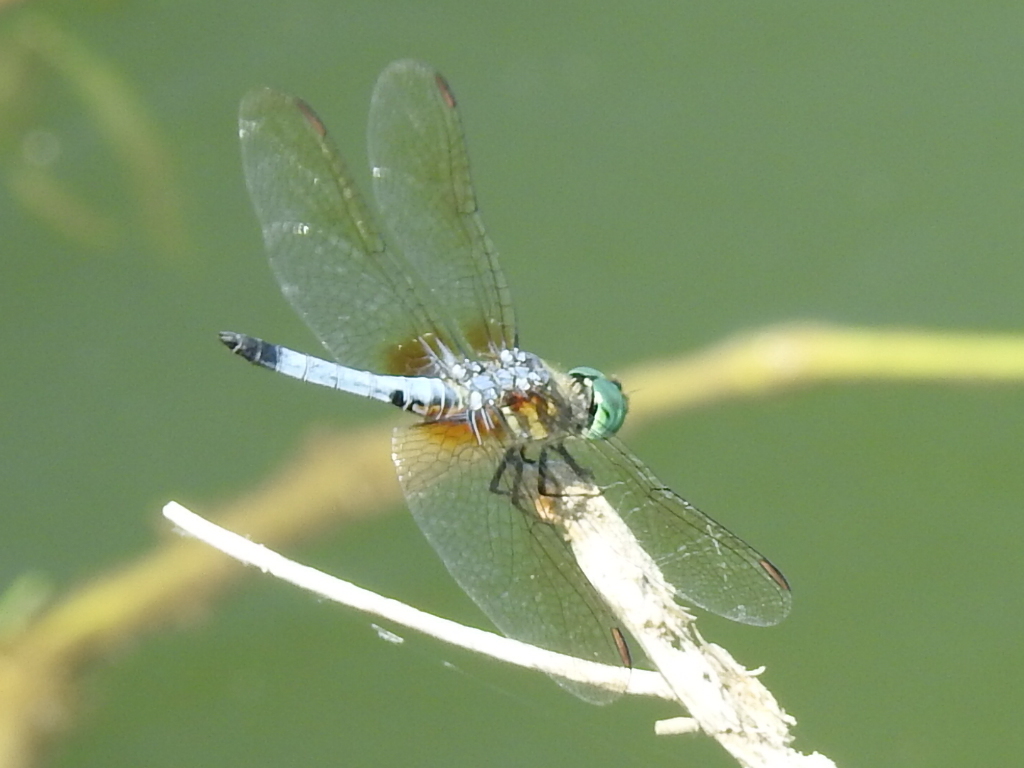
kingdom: Animalia
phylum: Arthropoda
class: Insecta
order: Odonata
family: Libellulidae
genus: Pachydiplax
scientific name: Pachydiplax longipennis
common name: Blue dasher
